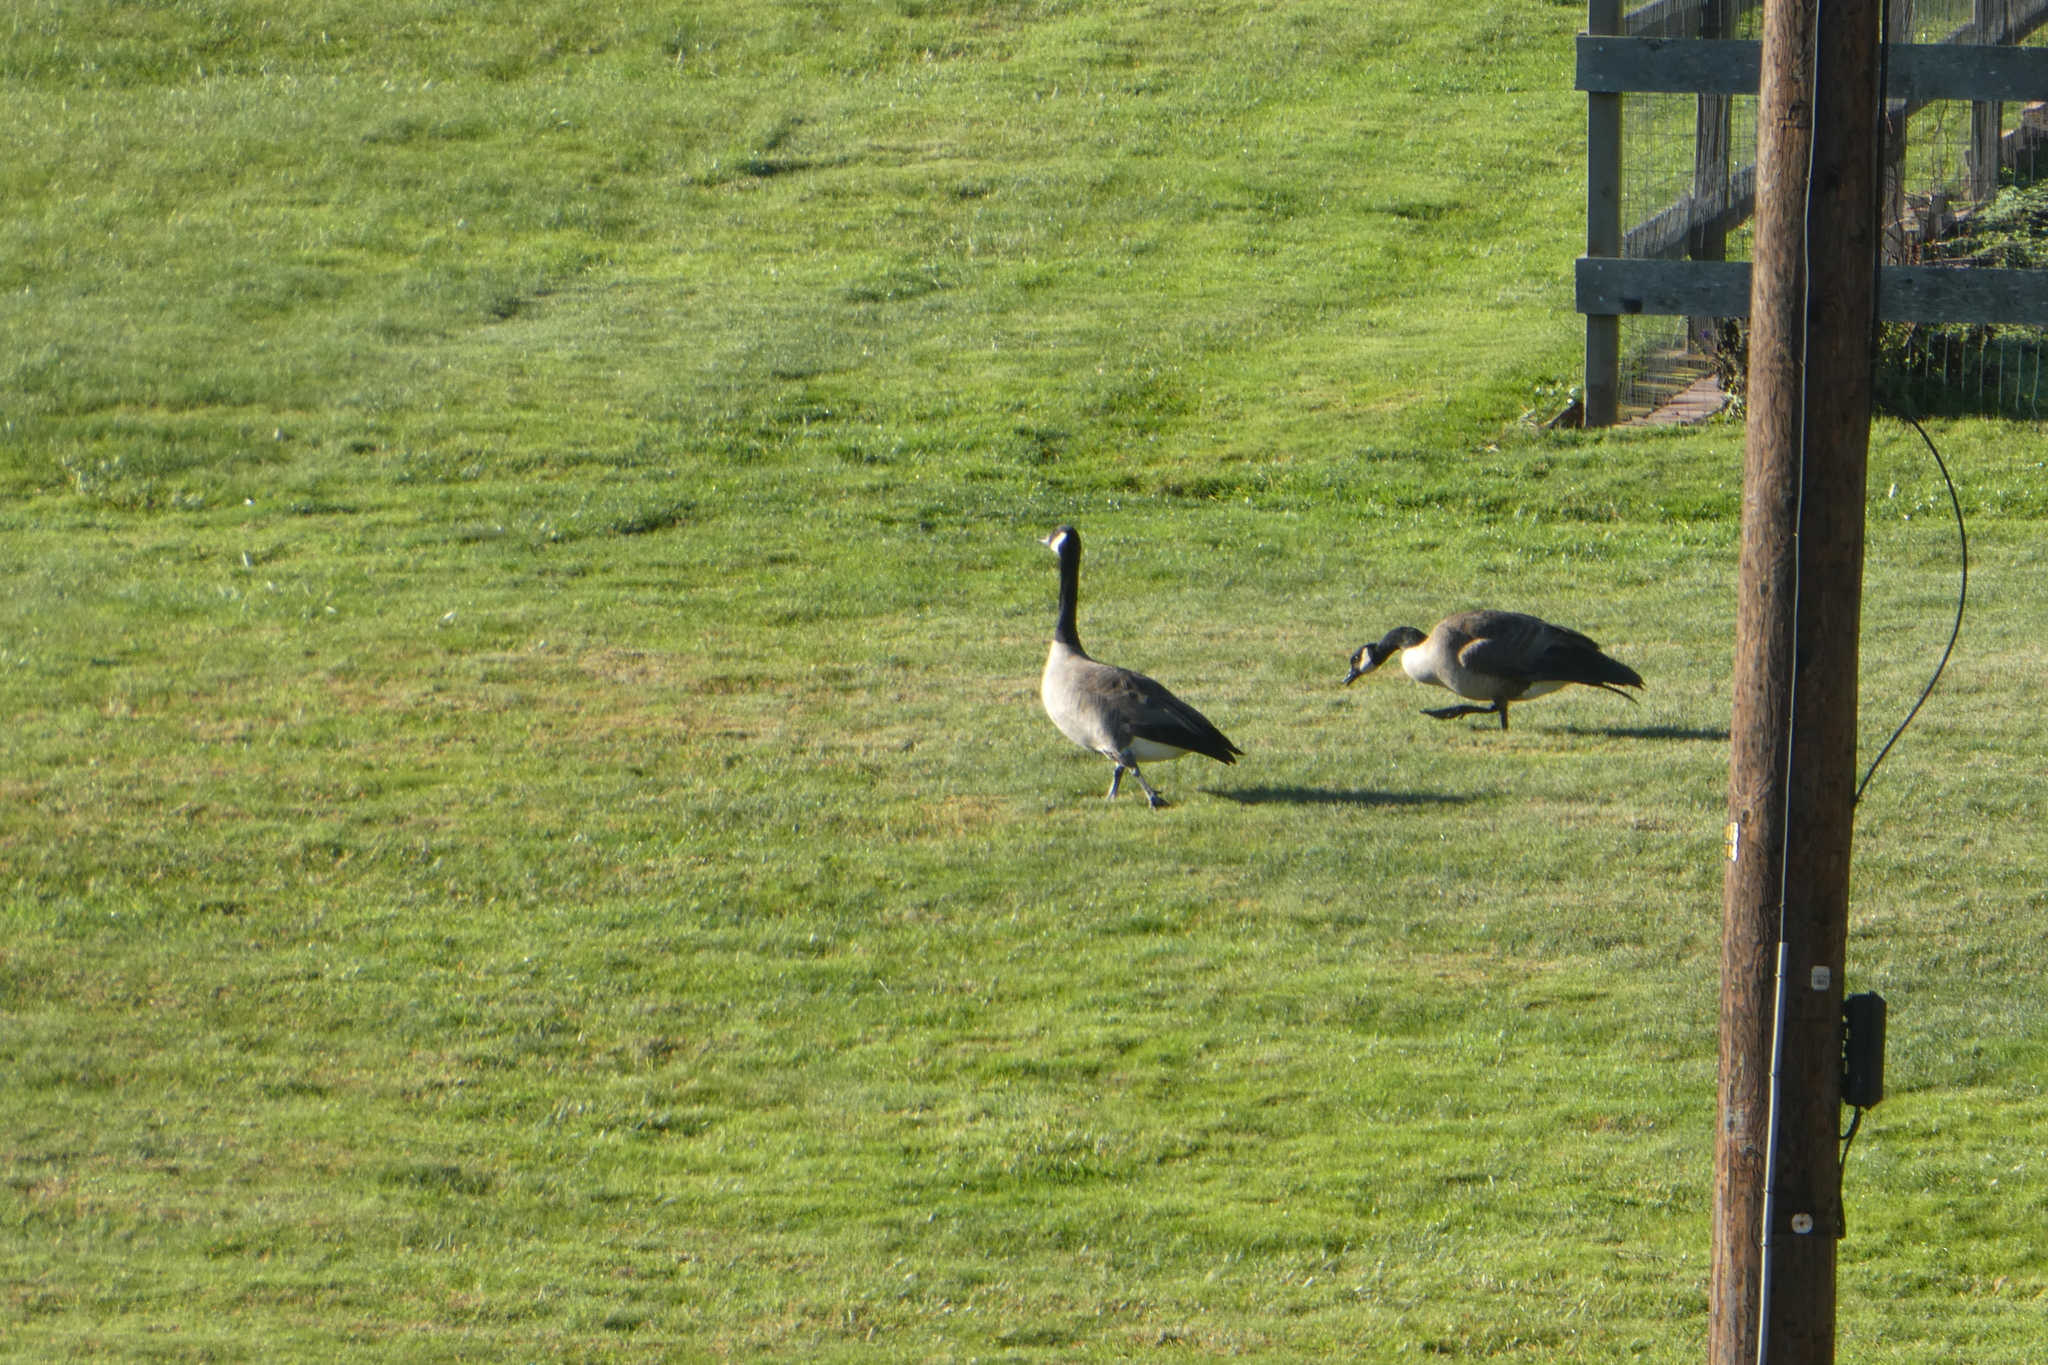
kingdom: Animalia
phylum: Chordata
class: Aves
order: Anseriformes
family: Anatidae
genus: Branta
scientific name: Branta canadensis
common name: Canada goose
